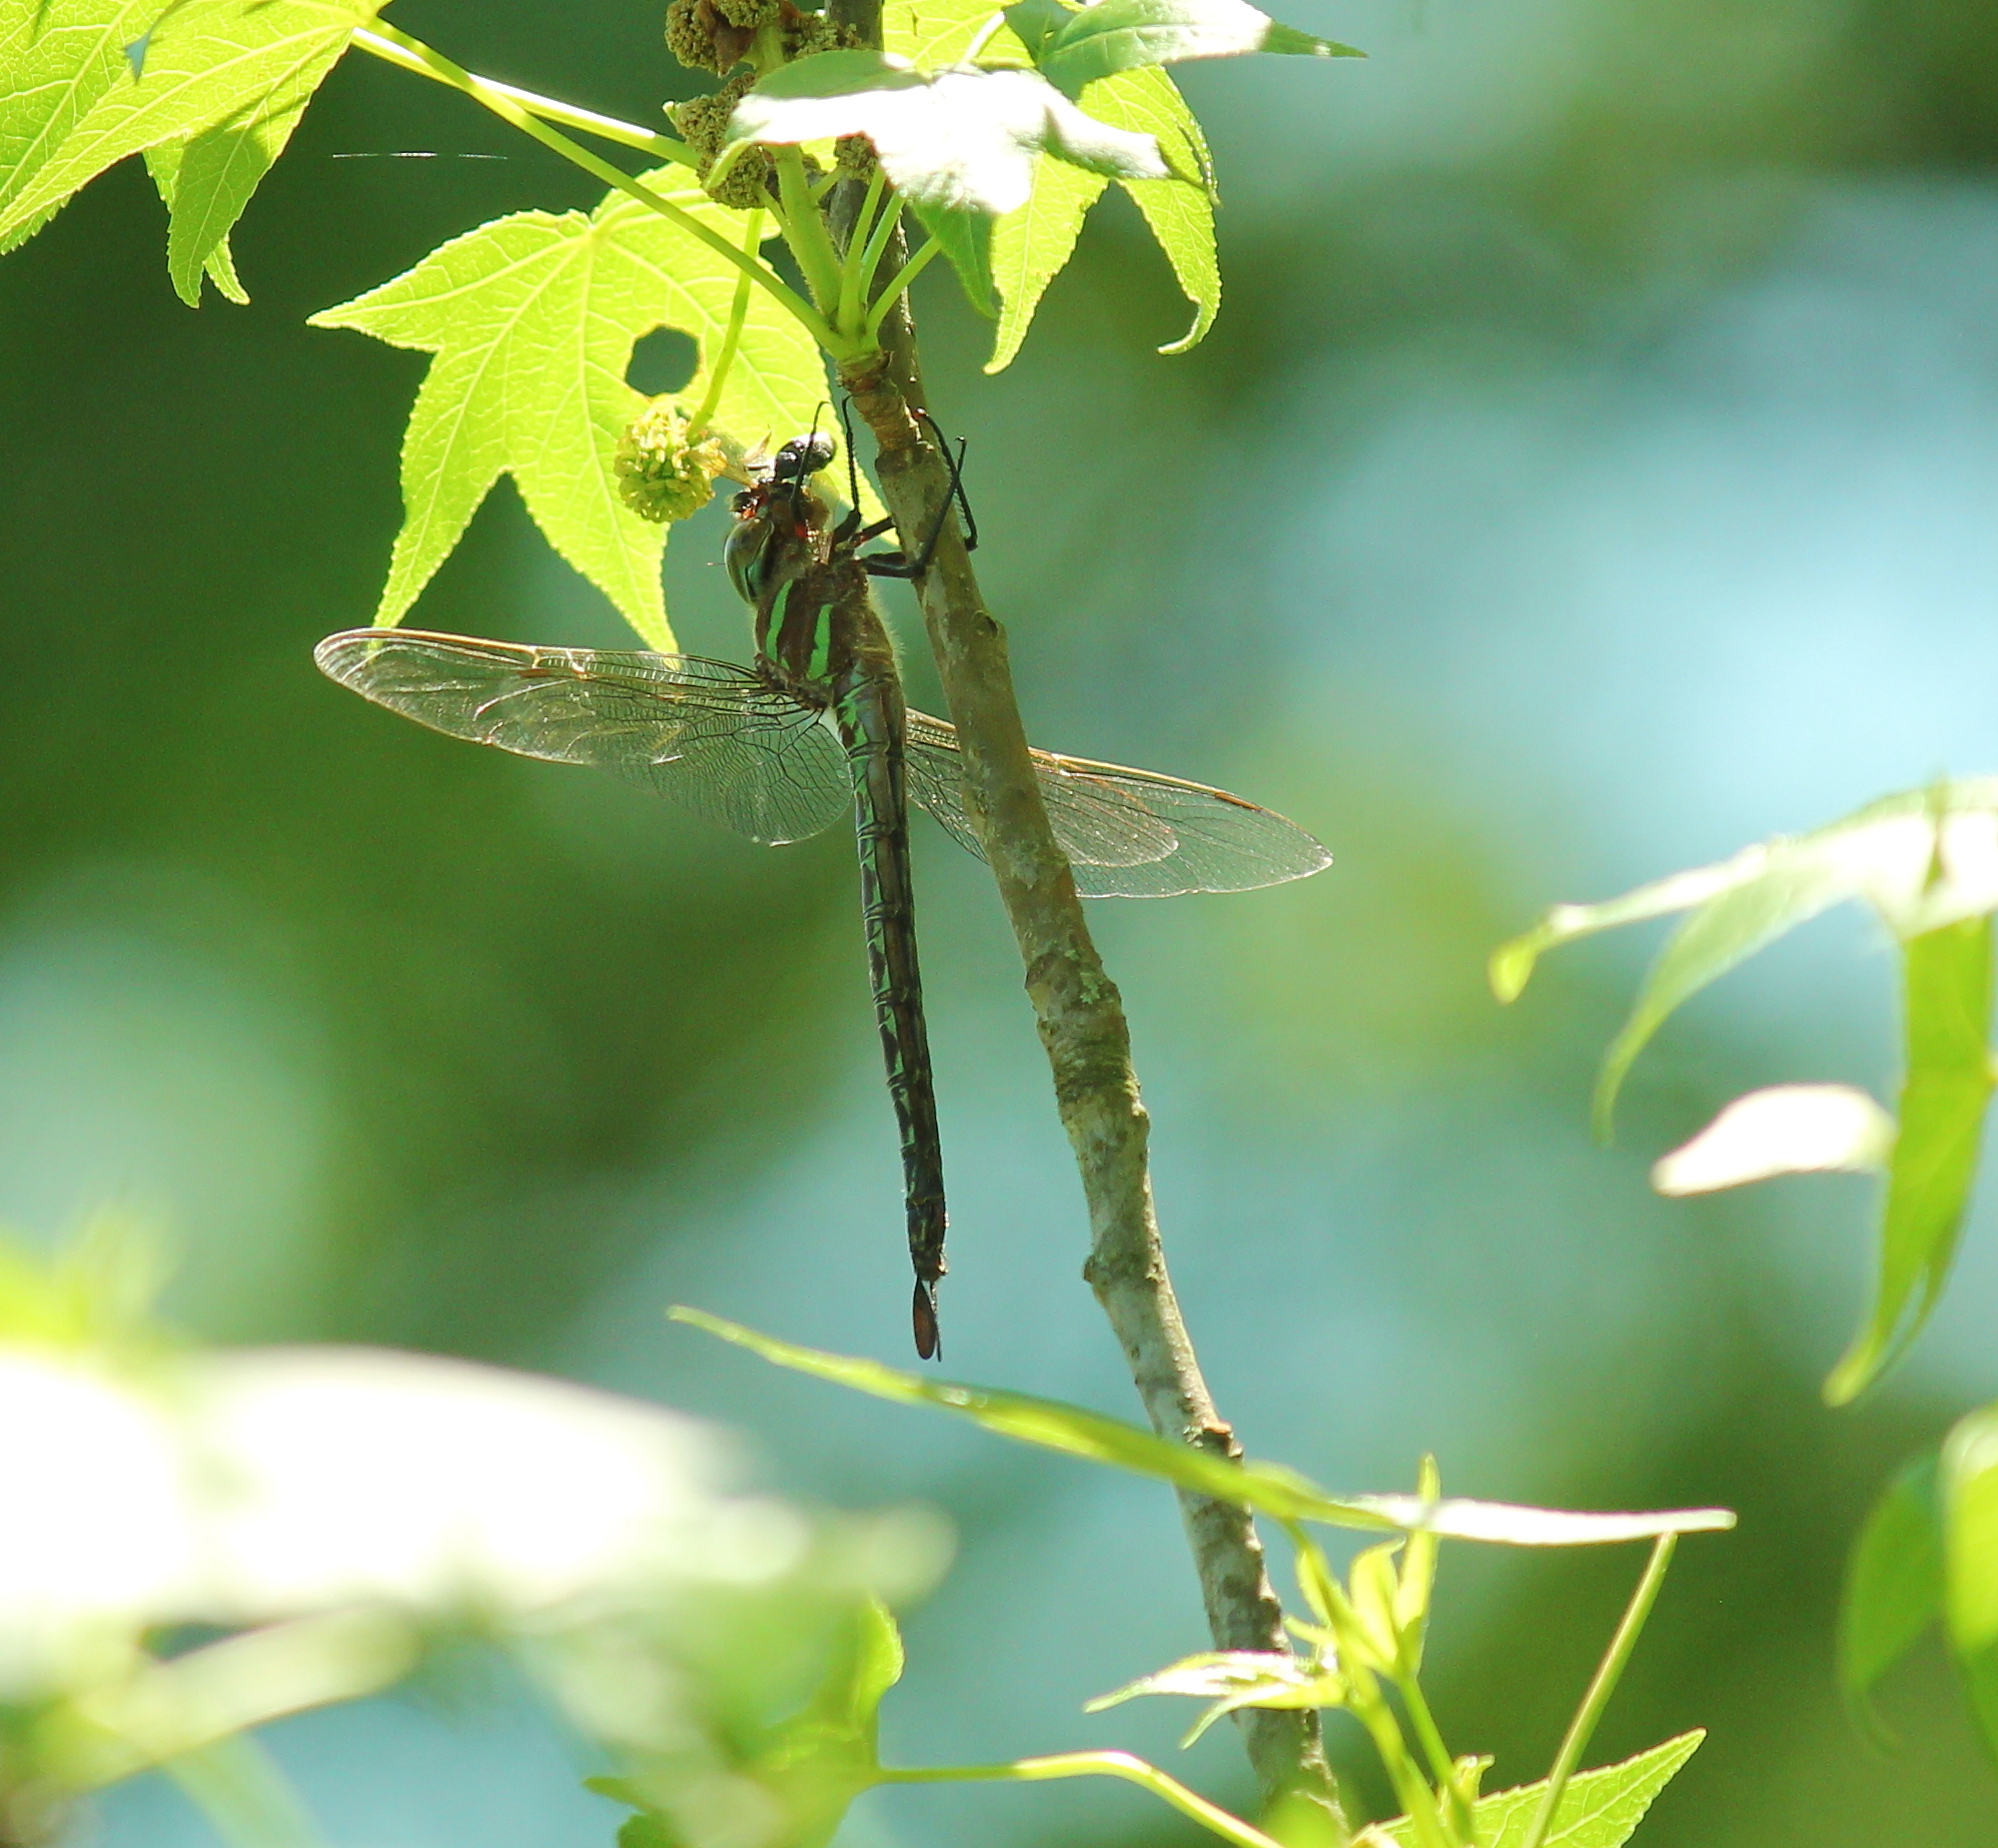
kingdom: Animalia
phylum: Arthropoda
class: Insecta
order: Odonata
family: Aeshnidae
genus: Epiaeschna
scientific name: Epiaeschna heros
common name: Swamp darner
